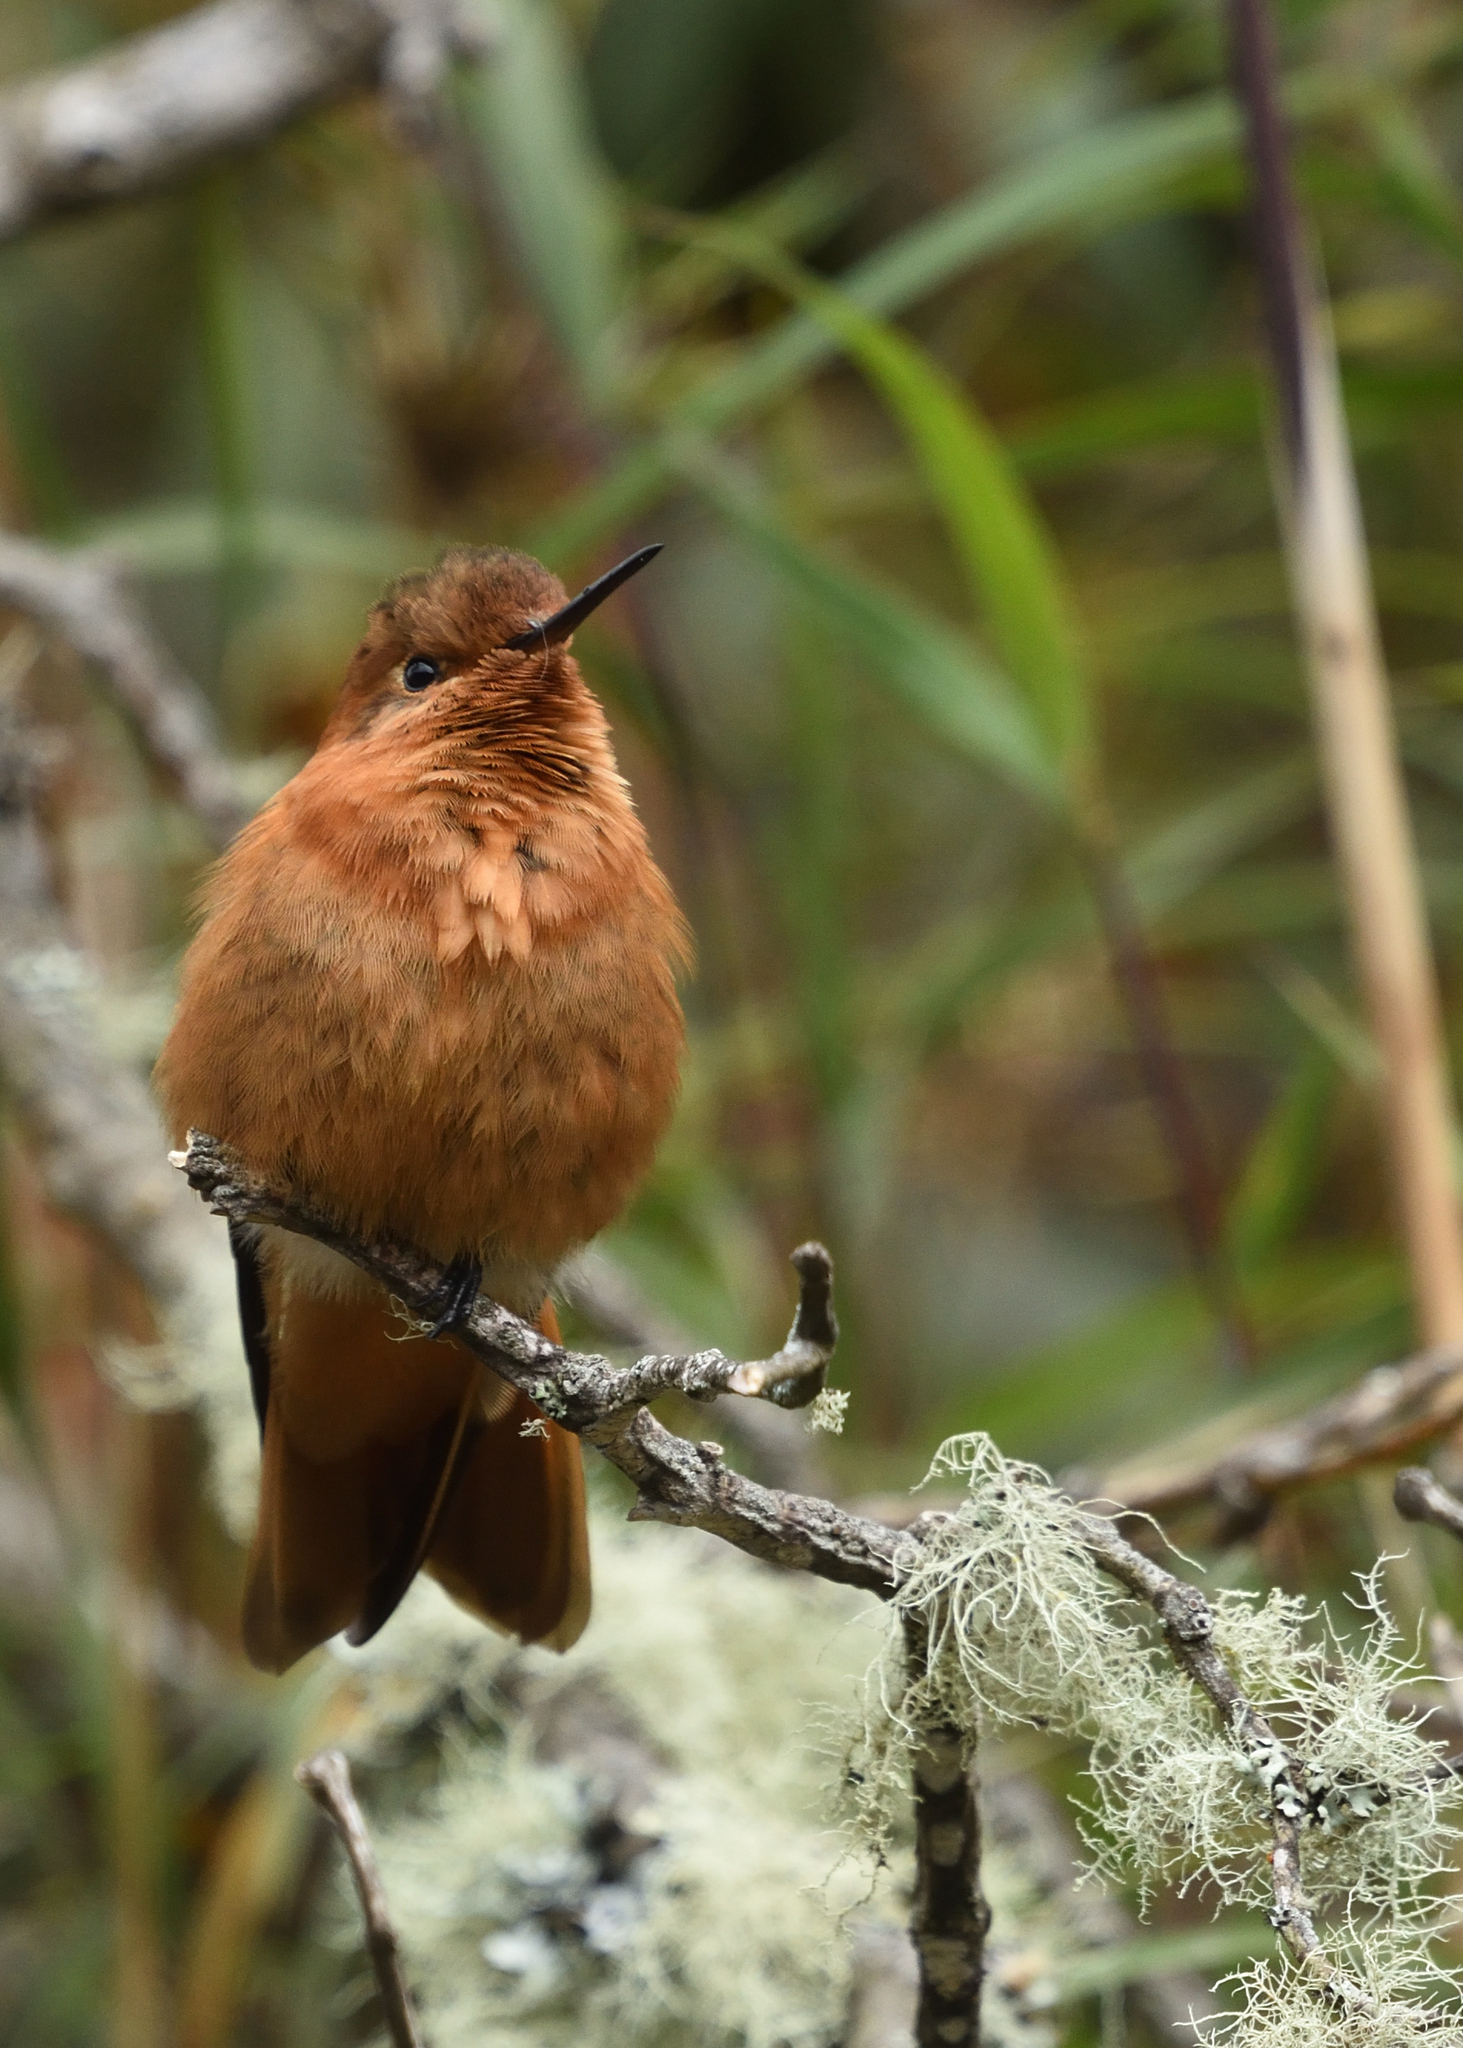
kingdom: Animalia
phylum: Chordata
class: Aves
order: Apodiformes
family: Trochilidae
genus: Aglaeactis
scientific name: Aglaeactis cupripennis
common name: Shining sunbeam
